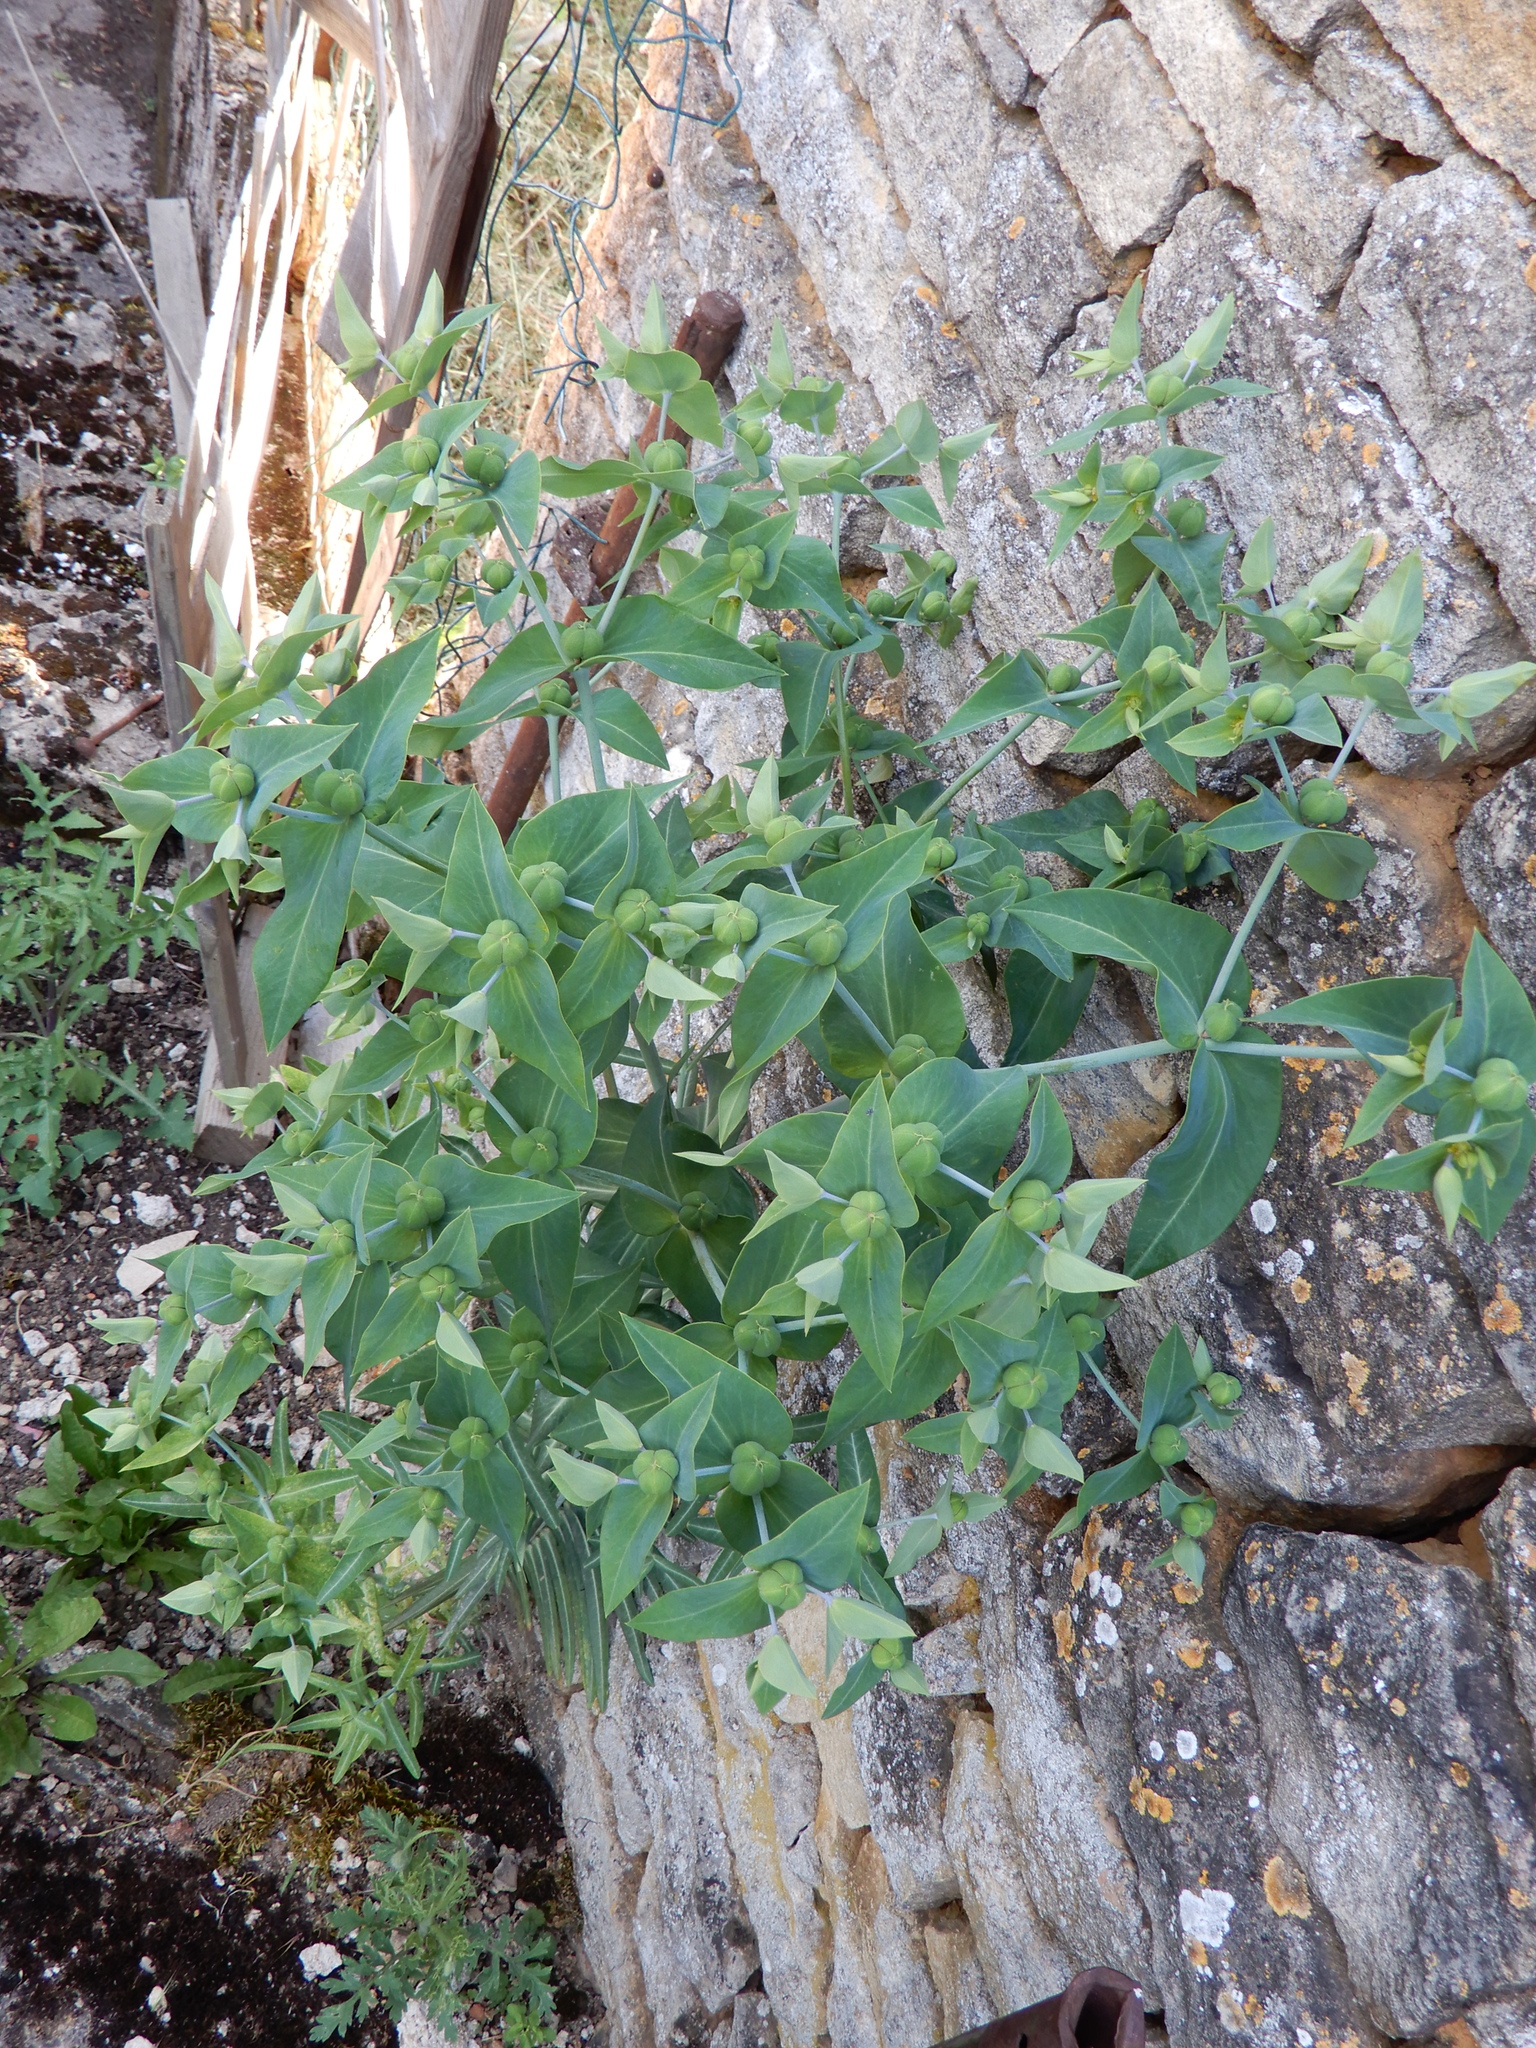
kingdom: Plantae
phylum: Tracheophyta
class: Magnoliopsida
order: Malpighiales
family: Euphorbiaceae
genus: Euphorbia
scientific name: Euphorbia lathyris
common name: Caper spurge
